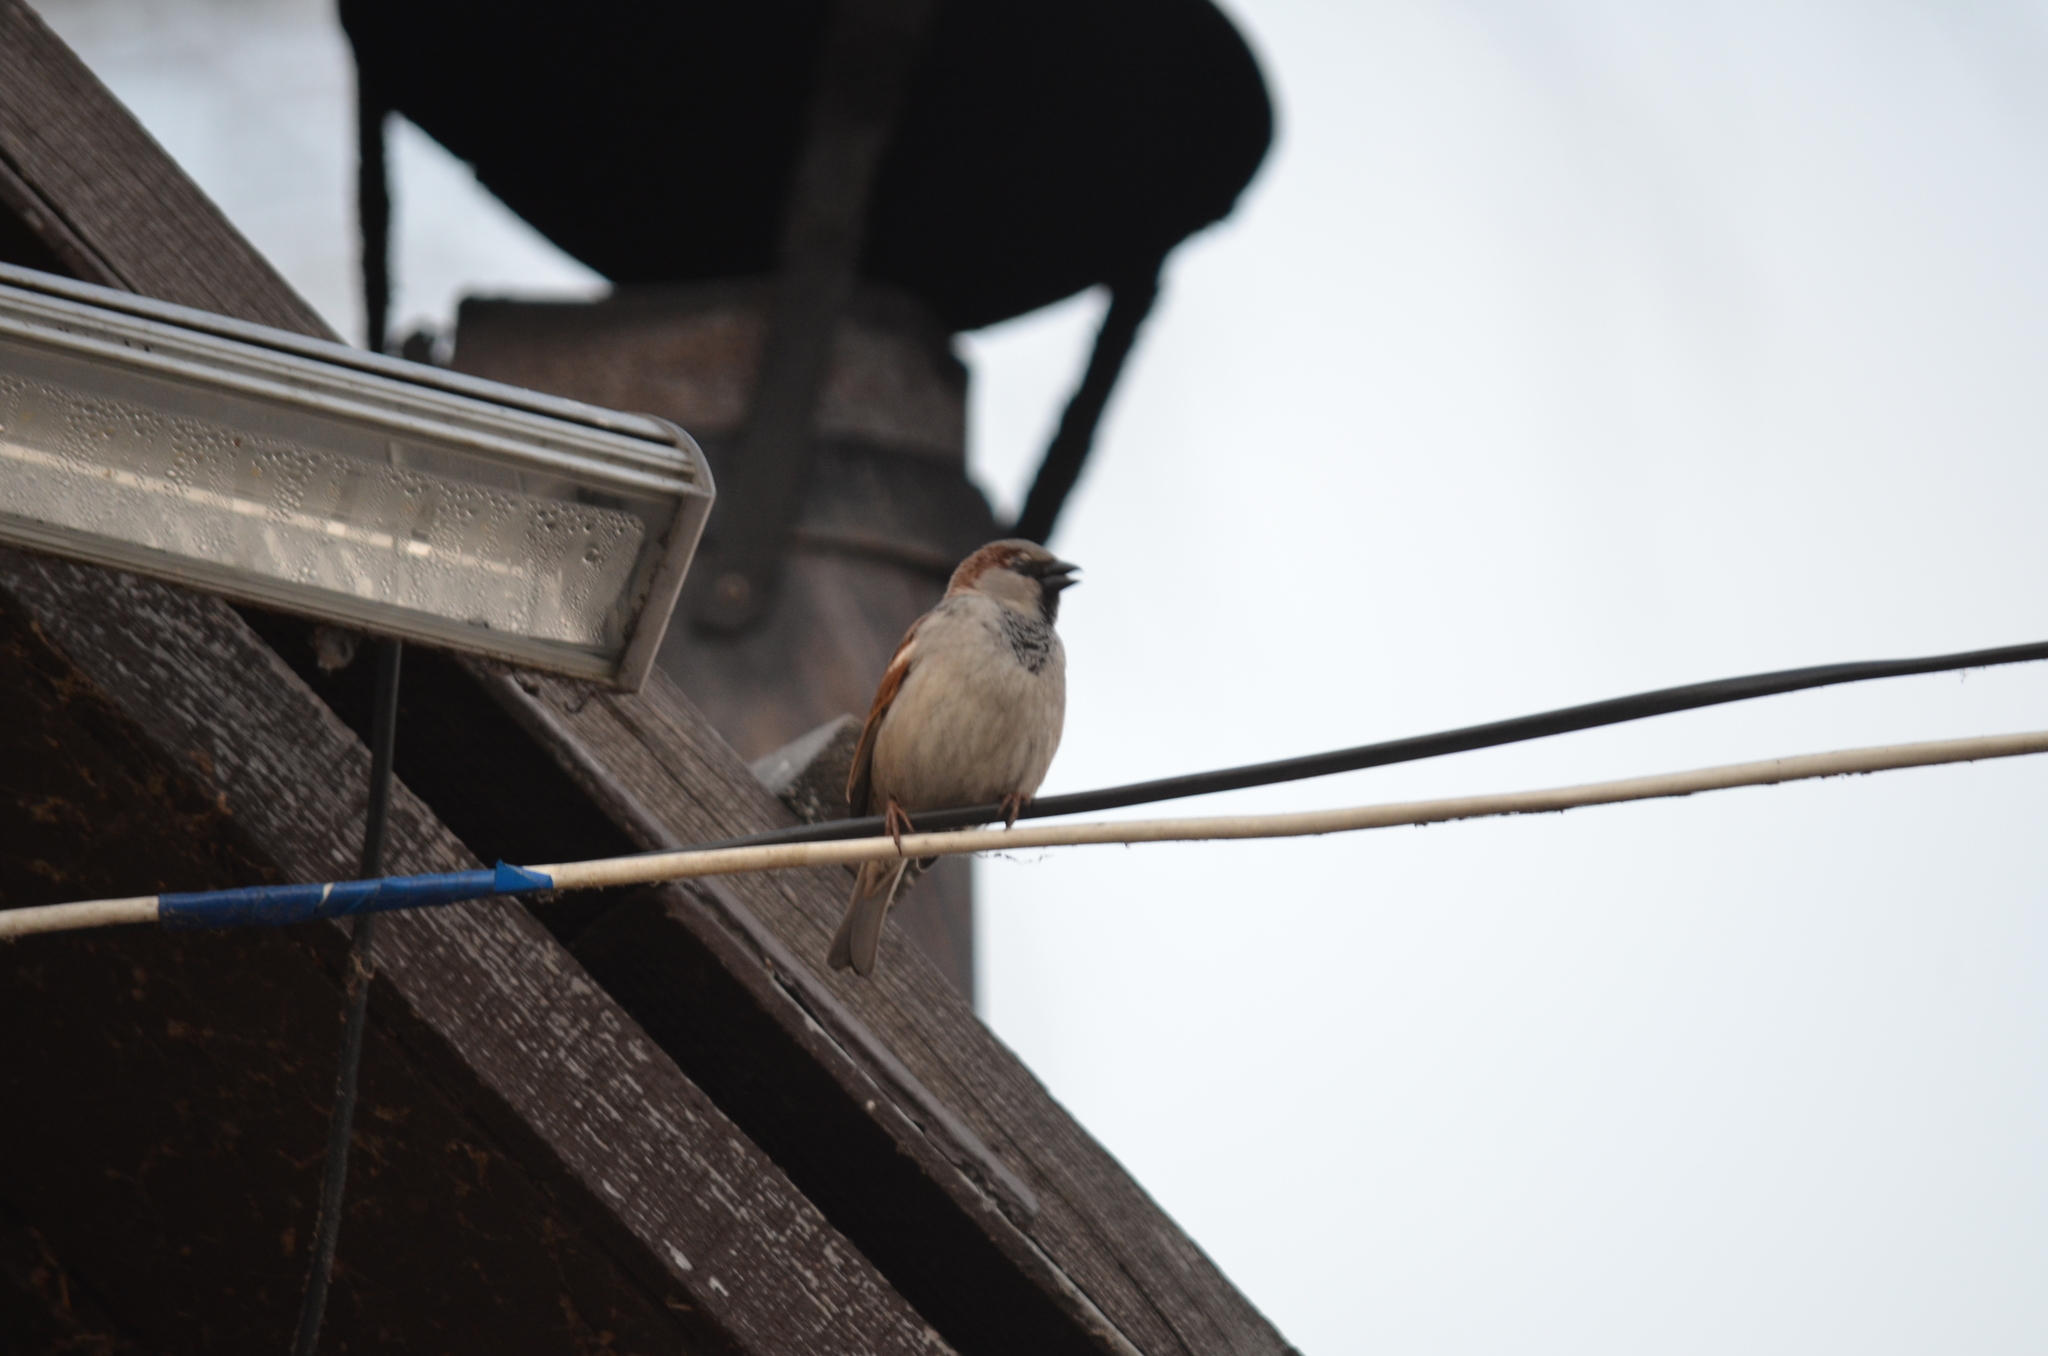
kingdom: Animalia
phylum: Chordata
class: Aves
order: Passeriformes
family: Passeridae
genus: Passer
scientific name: Passer domesticus
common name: House sparrow
